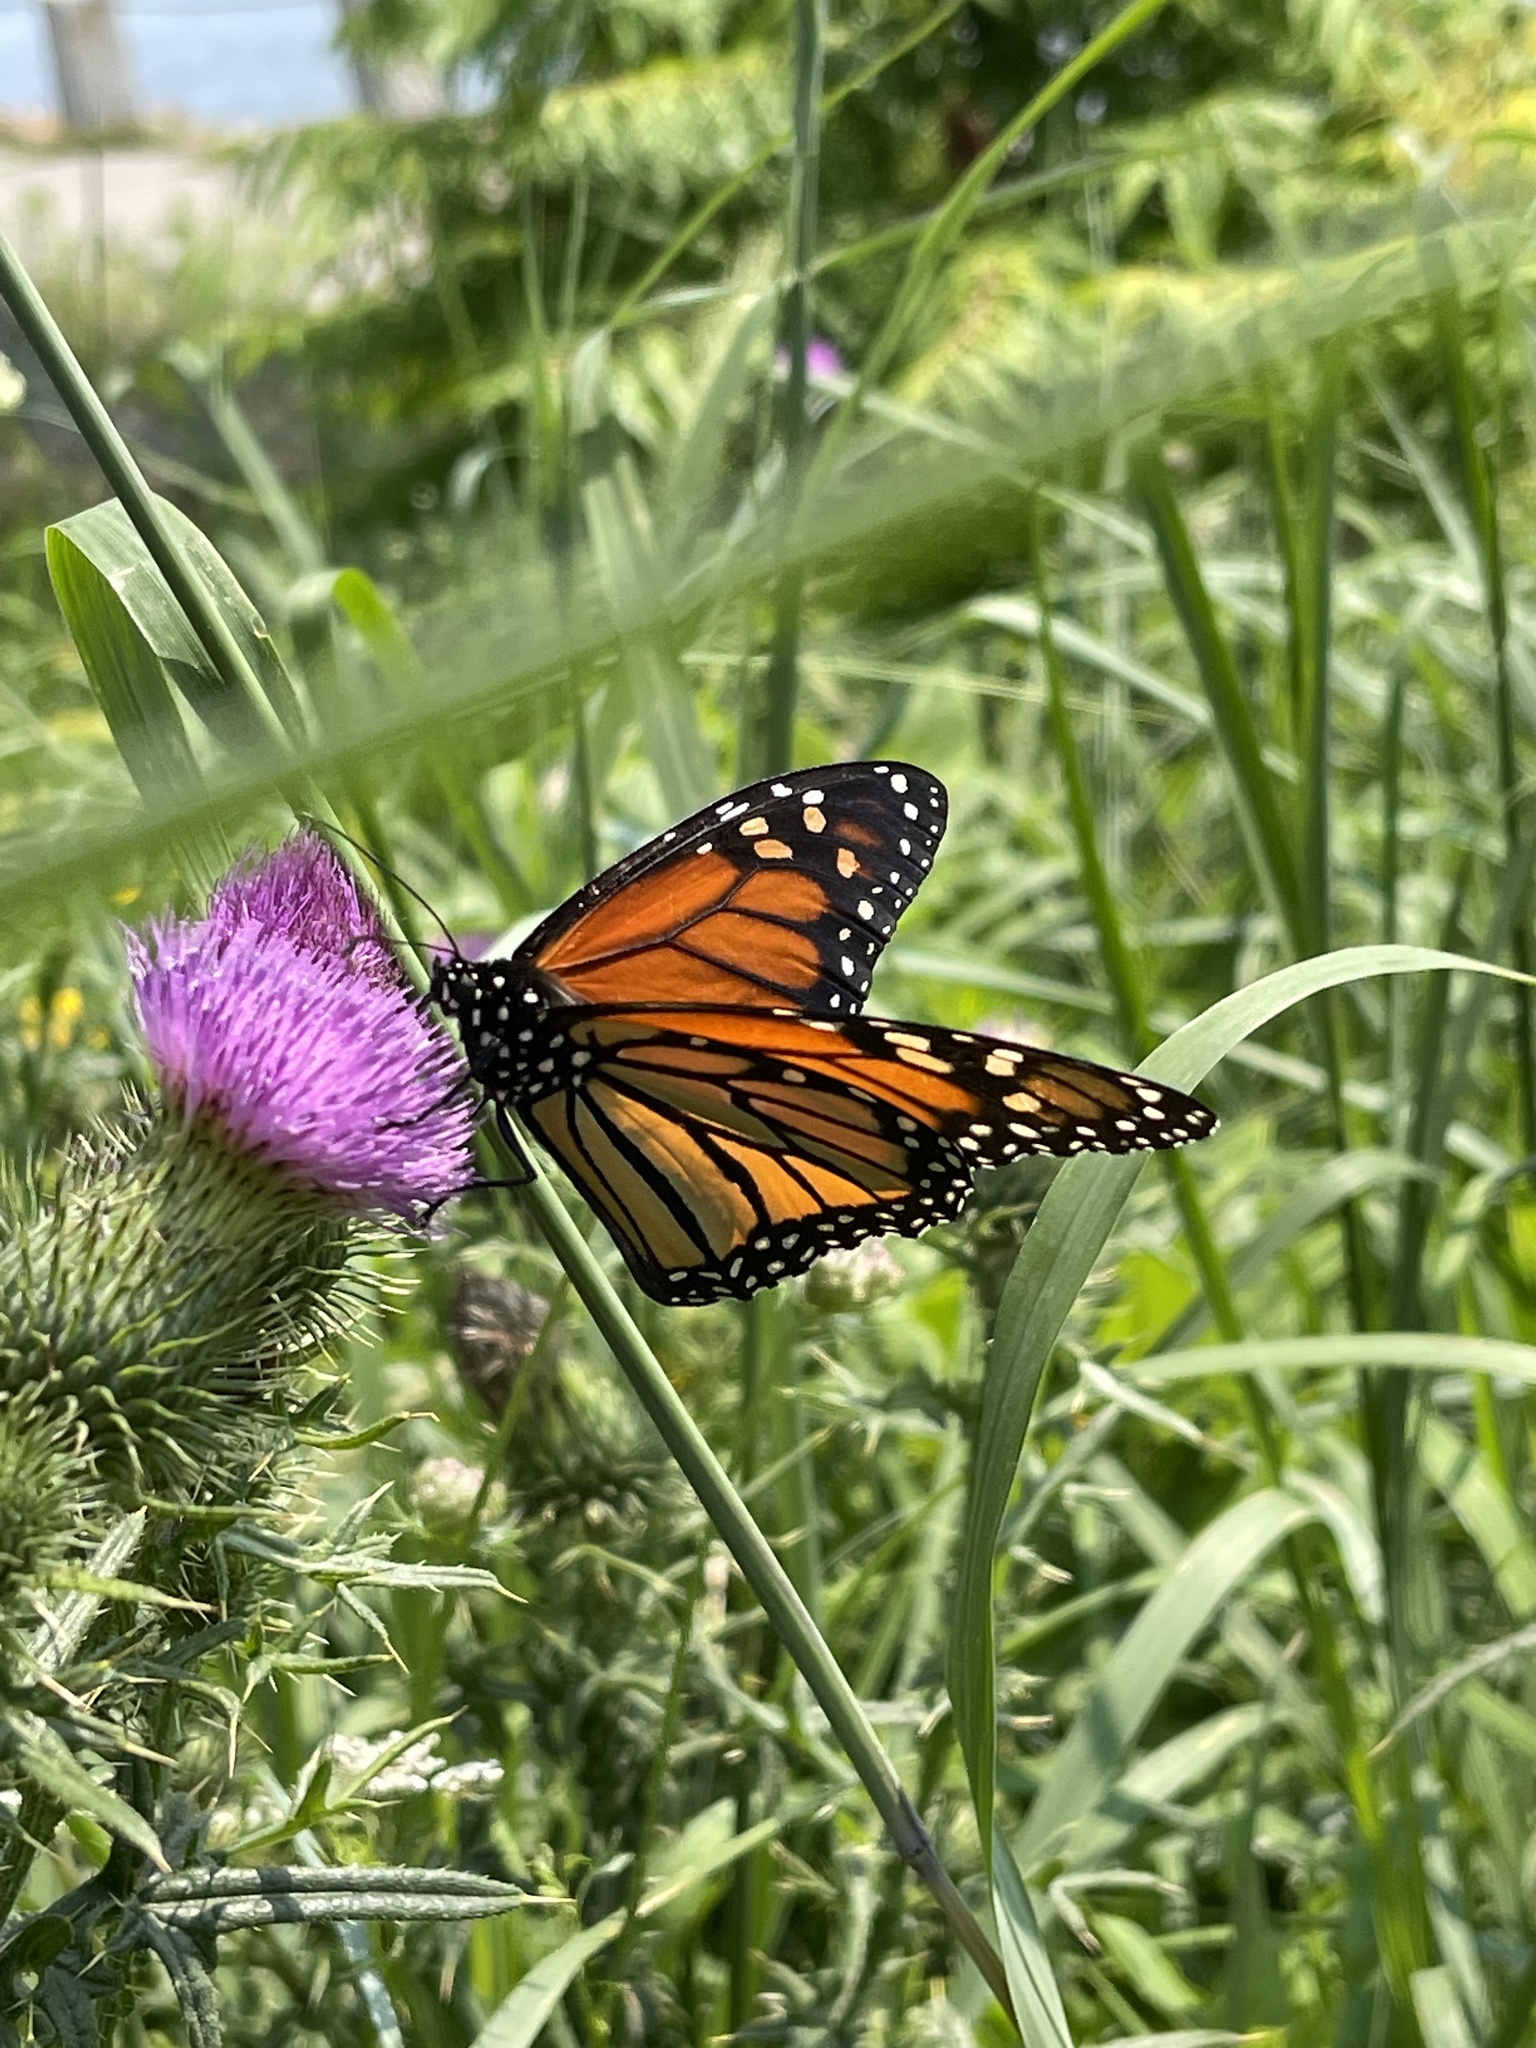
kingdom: Animalia
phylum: Arthropoda
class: Insecta
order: Lepidoptera
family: Nymphalidae
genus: Danaus
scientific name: Danaus plexippus
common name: Monarch
